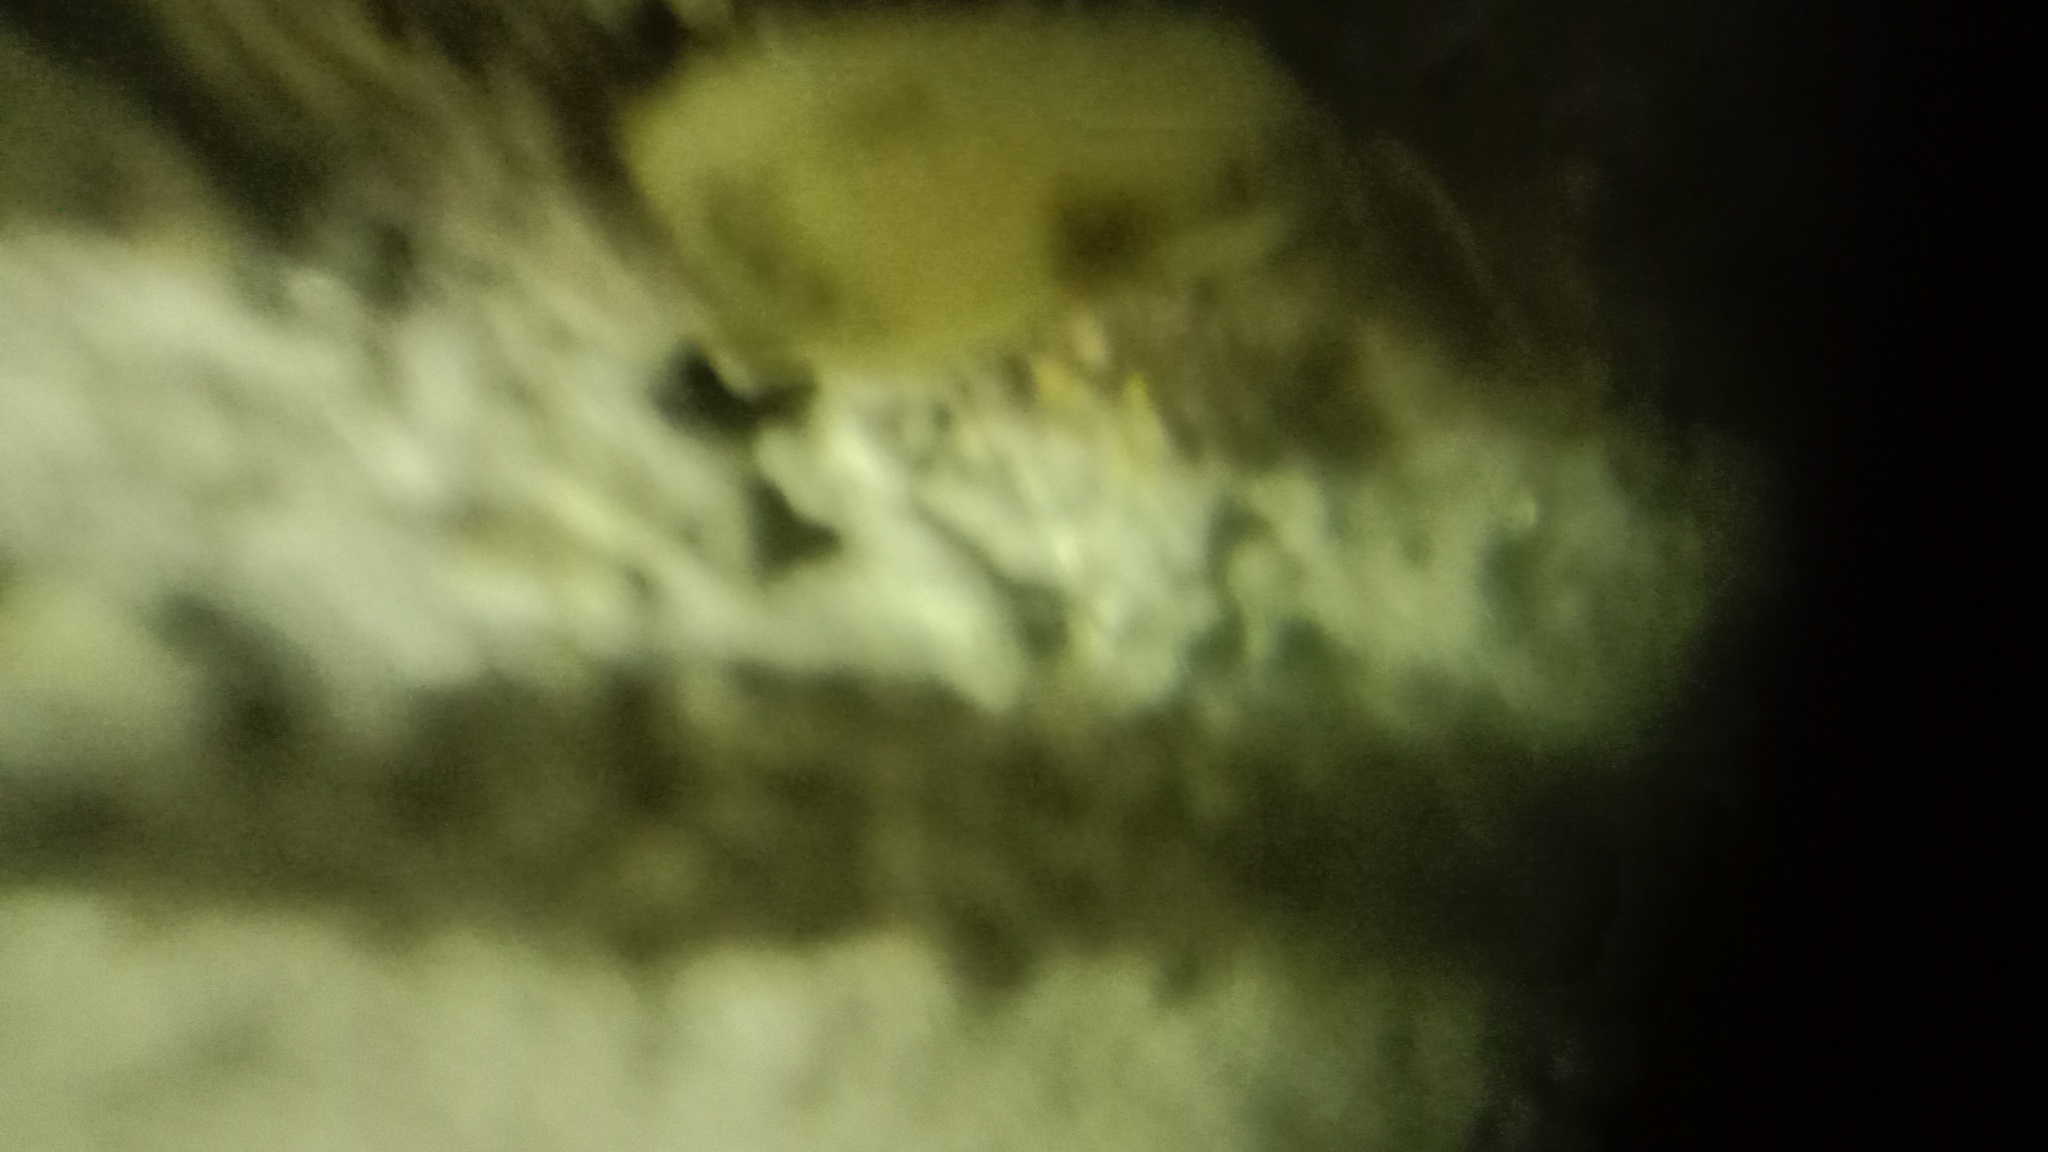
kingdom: Animalia
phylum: Arthropoda
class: Insecta
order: Lepidoptera
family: Drepanidae
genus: Cilix
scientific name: Cilix glaucata
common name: Chinese character
